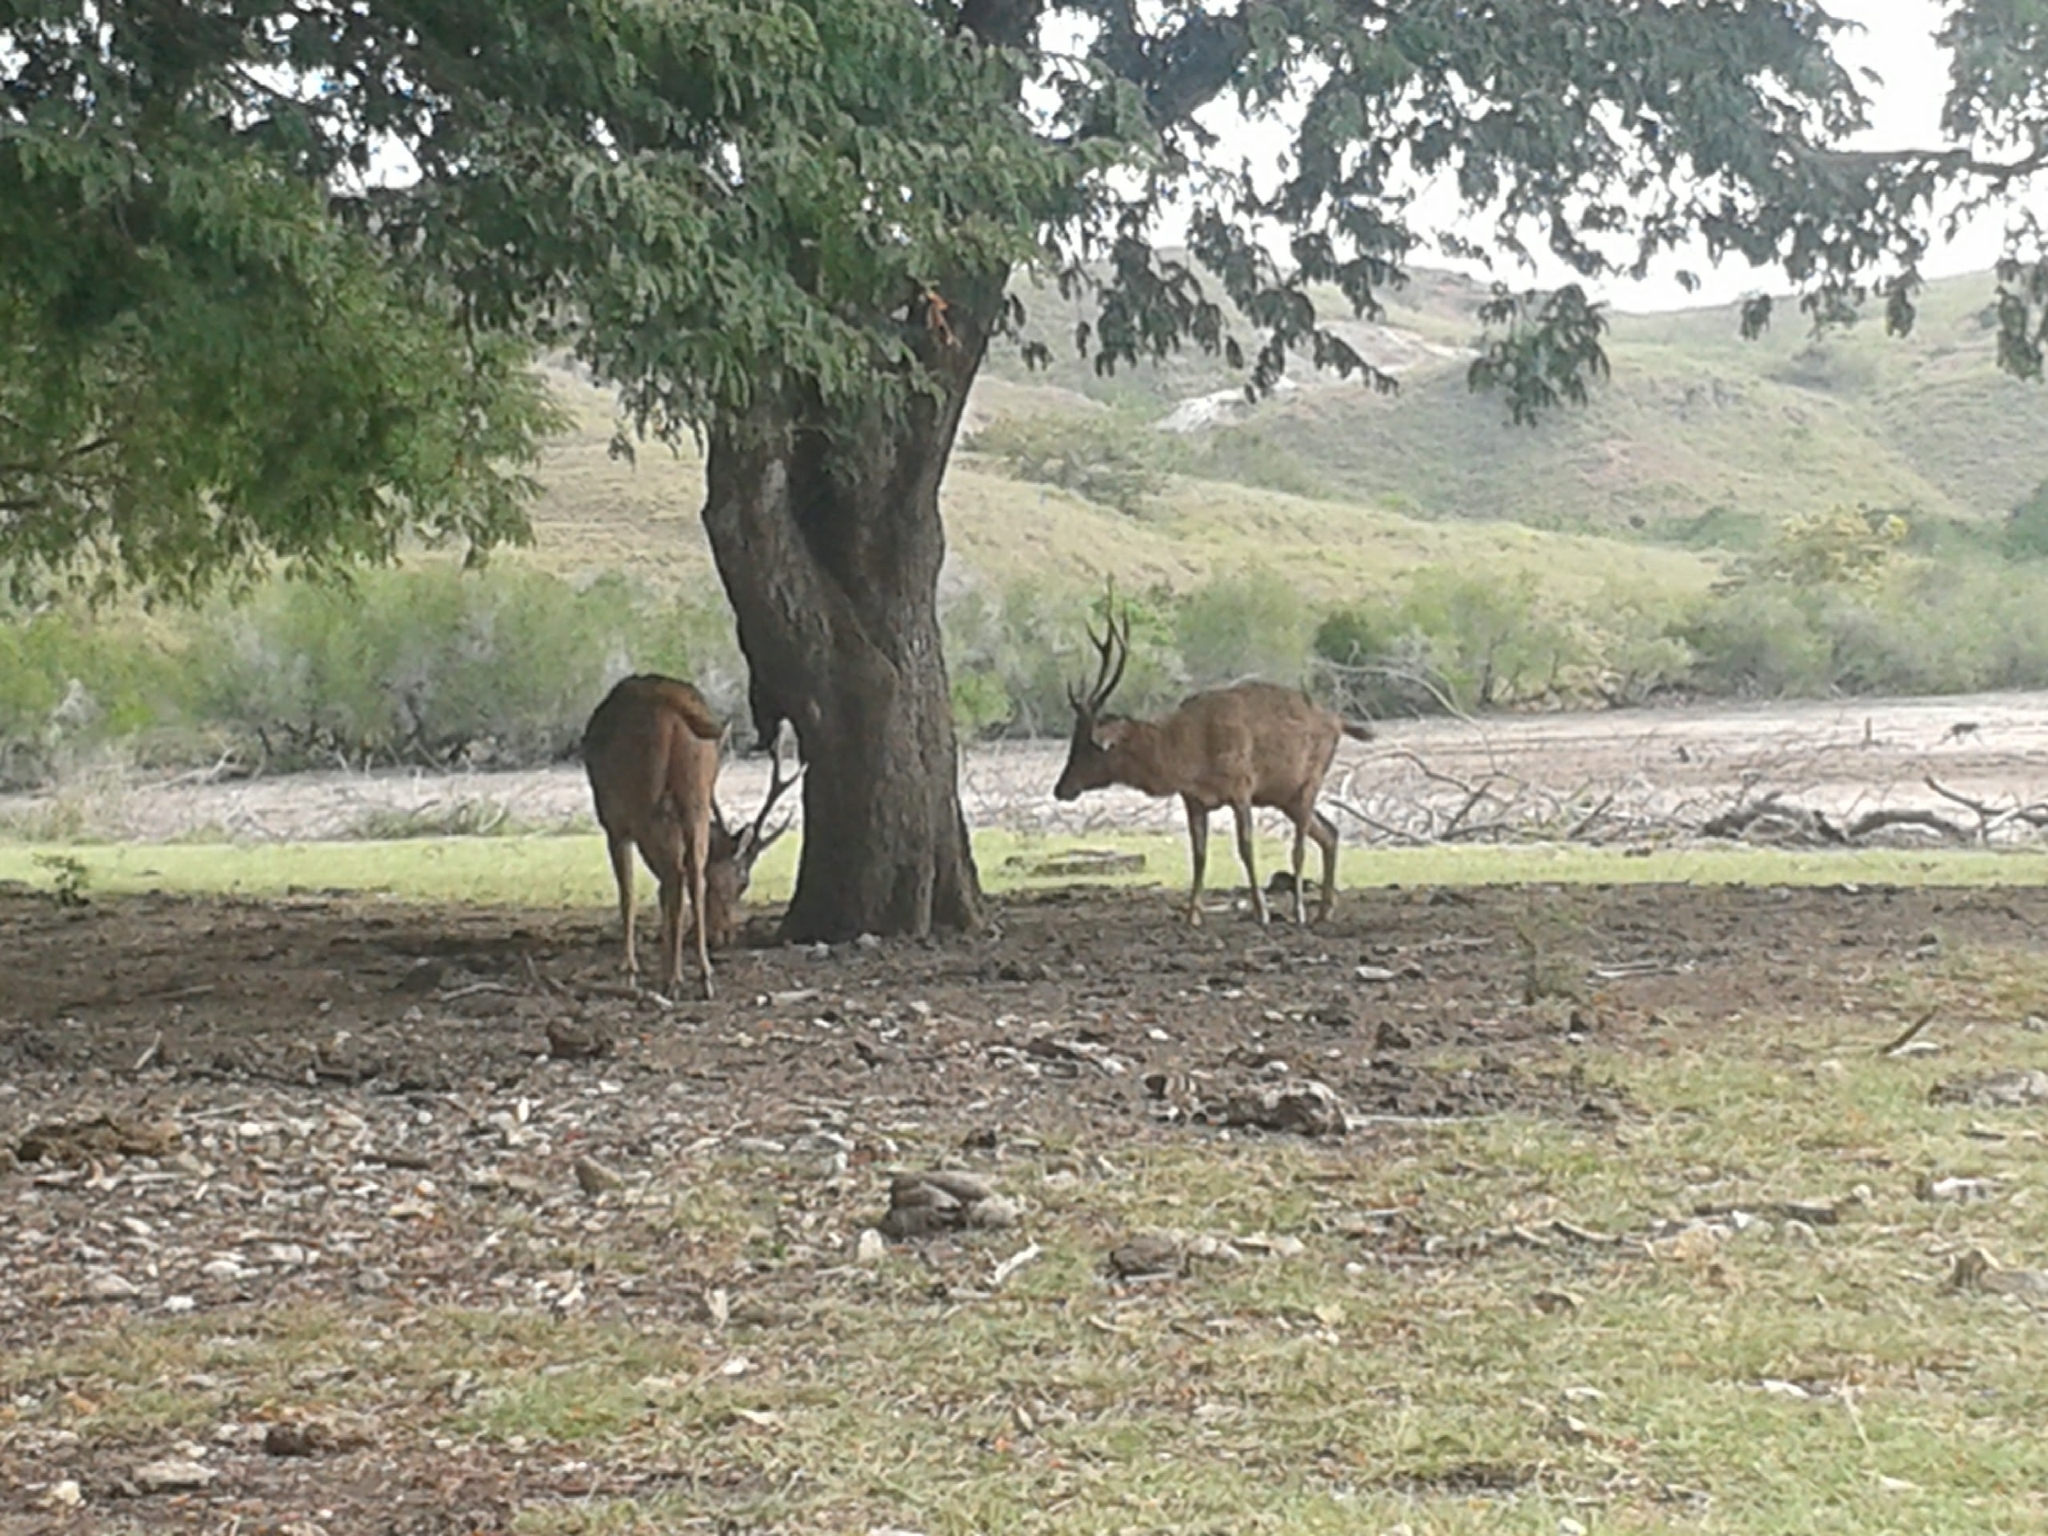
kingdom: Animalia
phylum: Chordata
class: Mammalia
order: Artiodactyla
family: Cervidae
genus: Rusa
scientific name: Rusa timorensis
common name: Javan rusa
